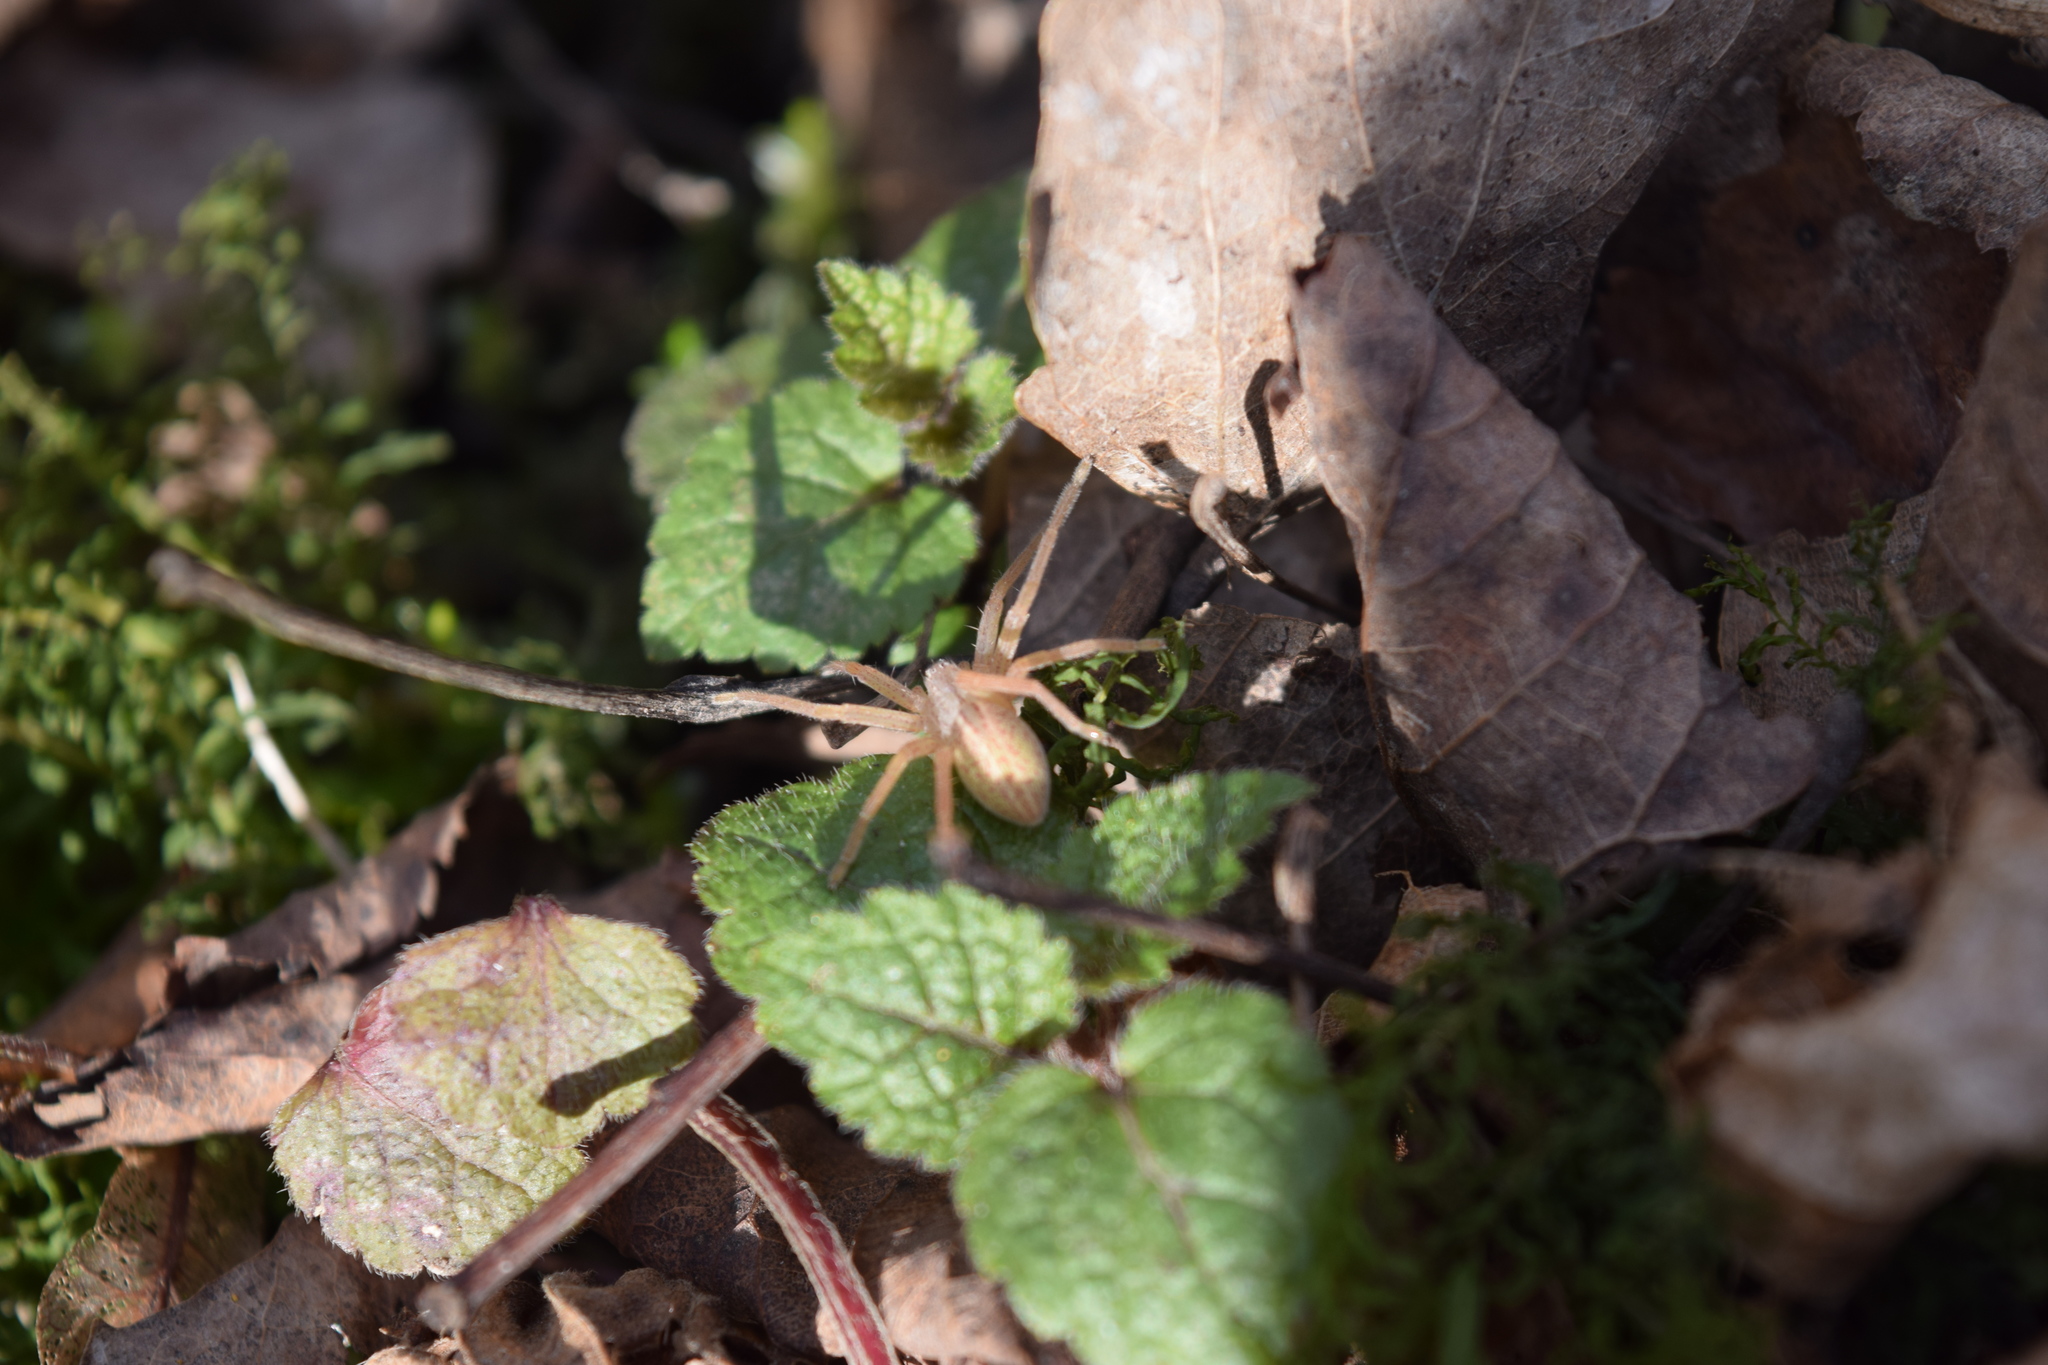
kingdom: Animalia
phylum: Arthropoda
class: Arachnida
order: Araneae
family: Sparassidae
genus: Micrommata
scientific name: Micrommata virescens
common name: Green spider
